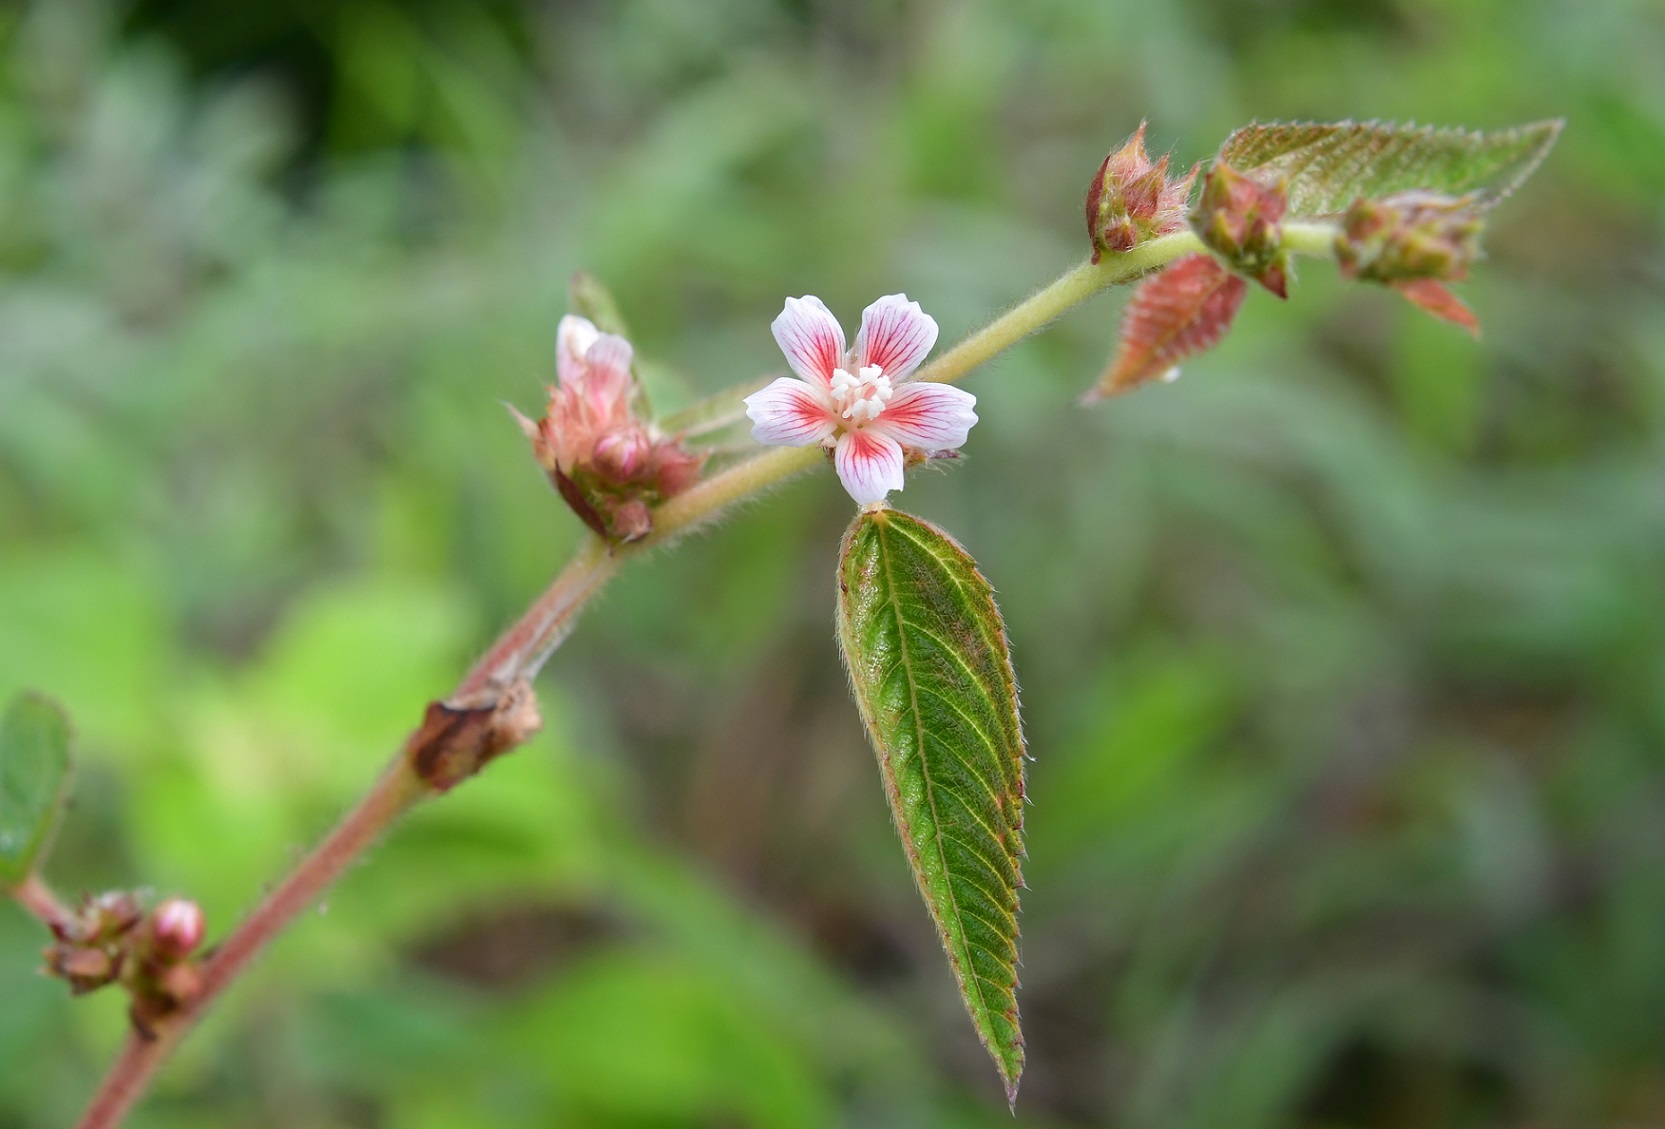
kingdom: Plantae
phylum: Tracheophyta
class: Magnoliopsida
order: Malvales
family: Malvaceae
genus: Melochia
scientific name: Melochia nodiflora
